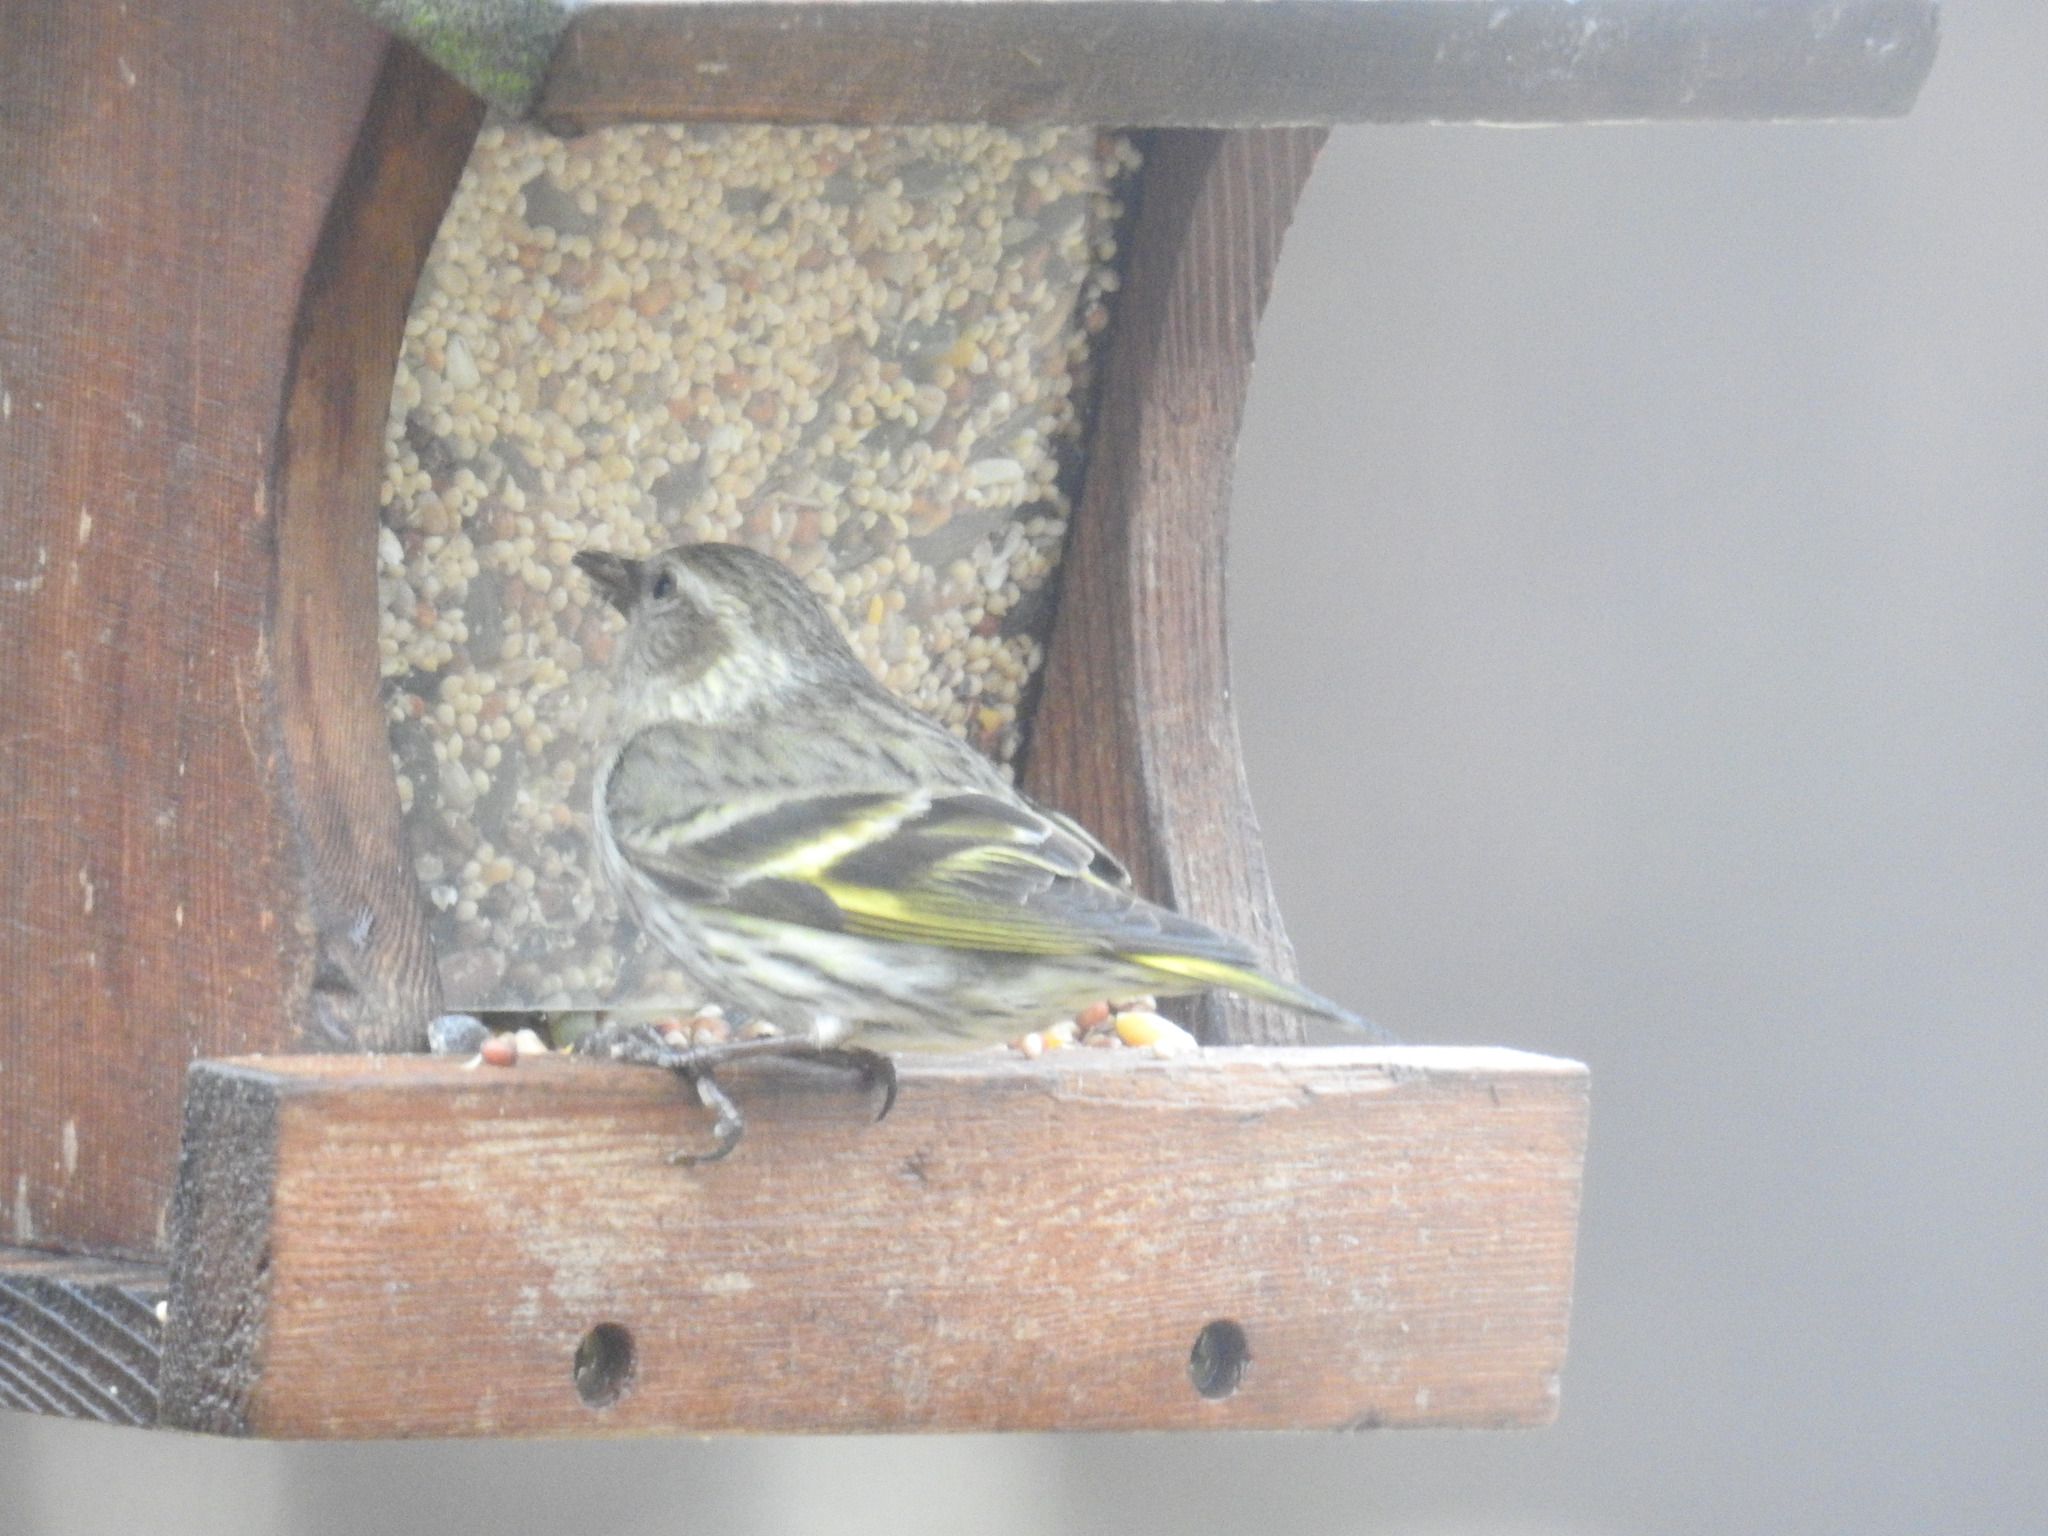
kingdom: Animalia
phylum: Chordata
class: Aves
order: Passeriformes
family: Fringillidae
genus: Spinus
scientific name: Spinus pinus
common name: Pine siskin
